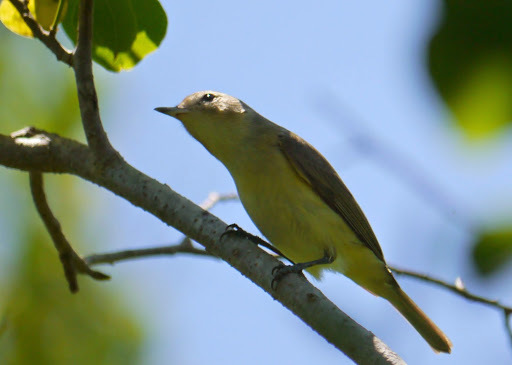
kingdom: Animalia
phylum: Chordata
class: Aves
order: Passeriformes
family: Vireonidae
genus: Vireo
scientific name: Vireo philadelphicus
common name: Philadelphia vireo
